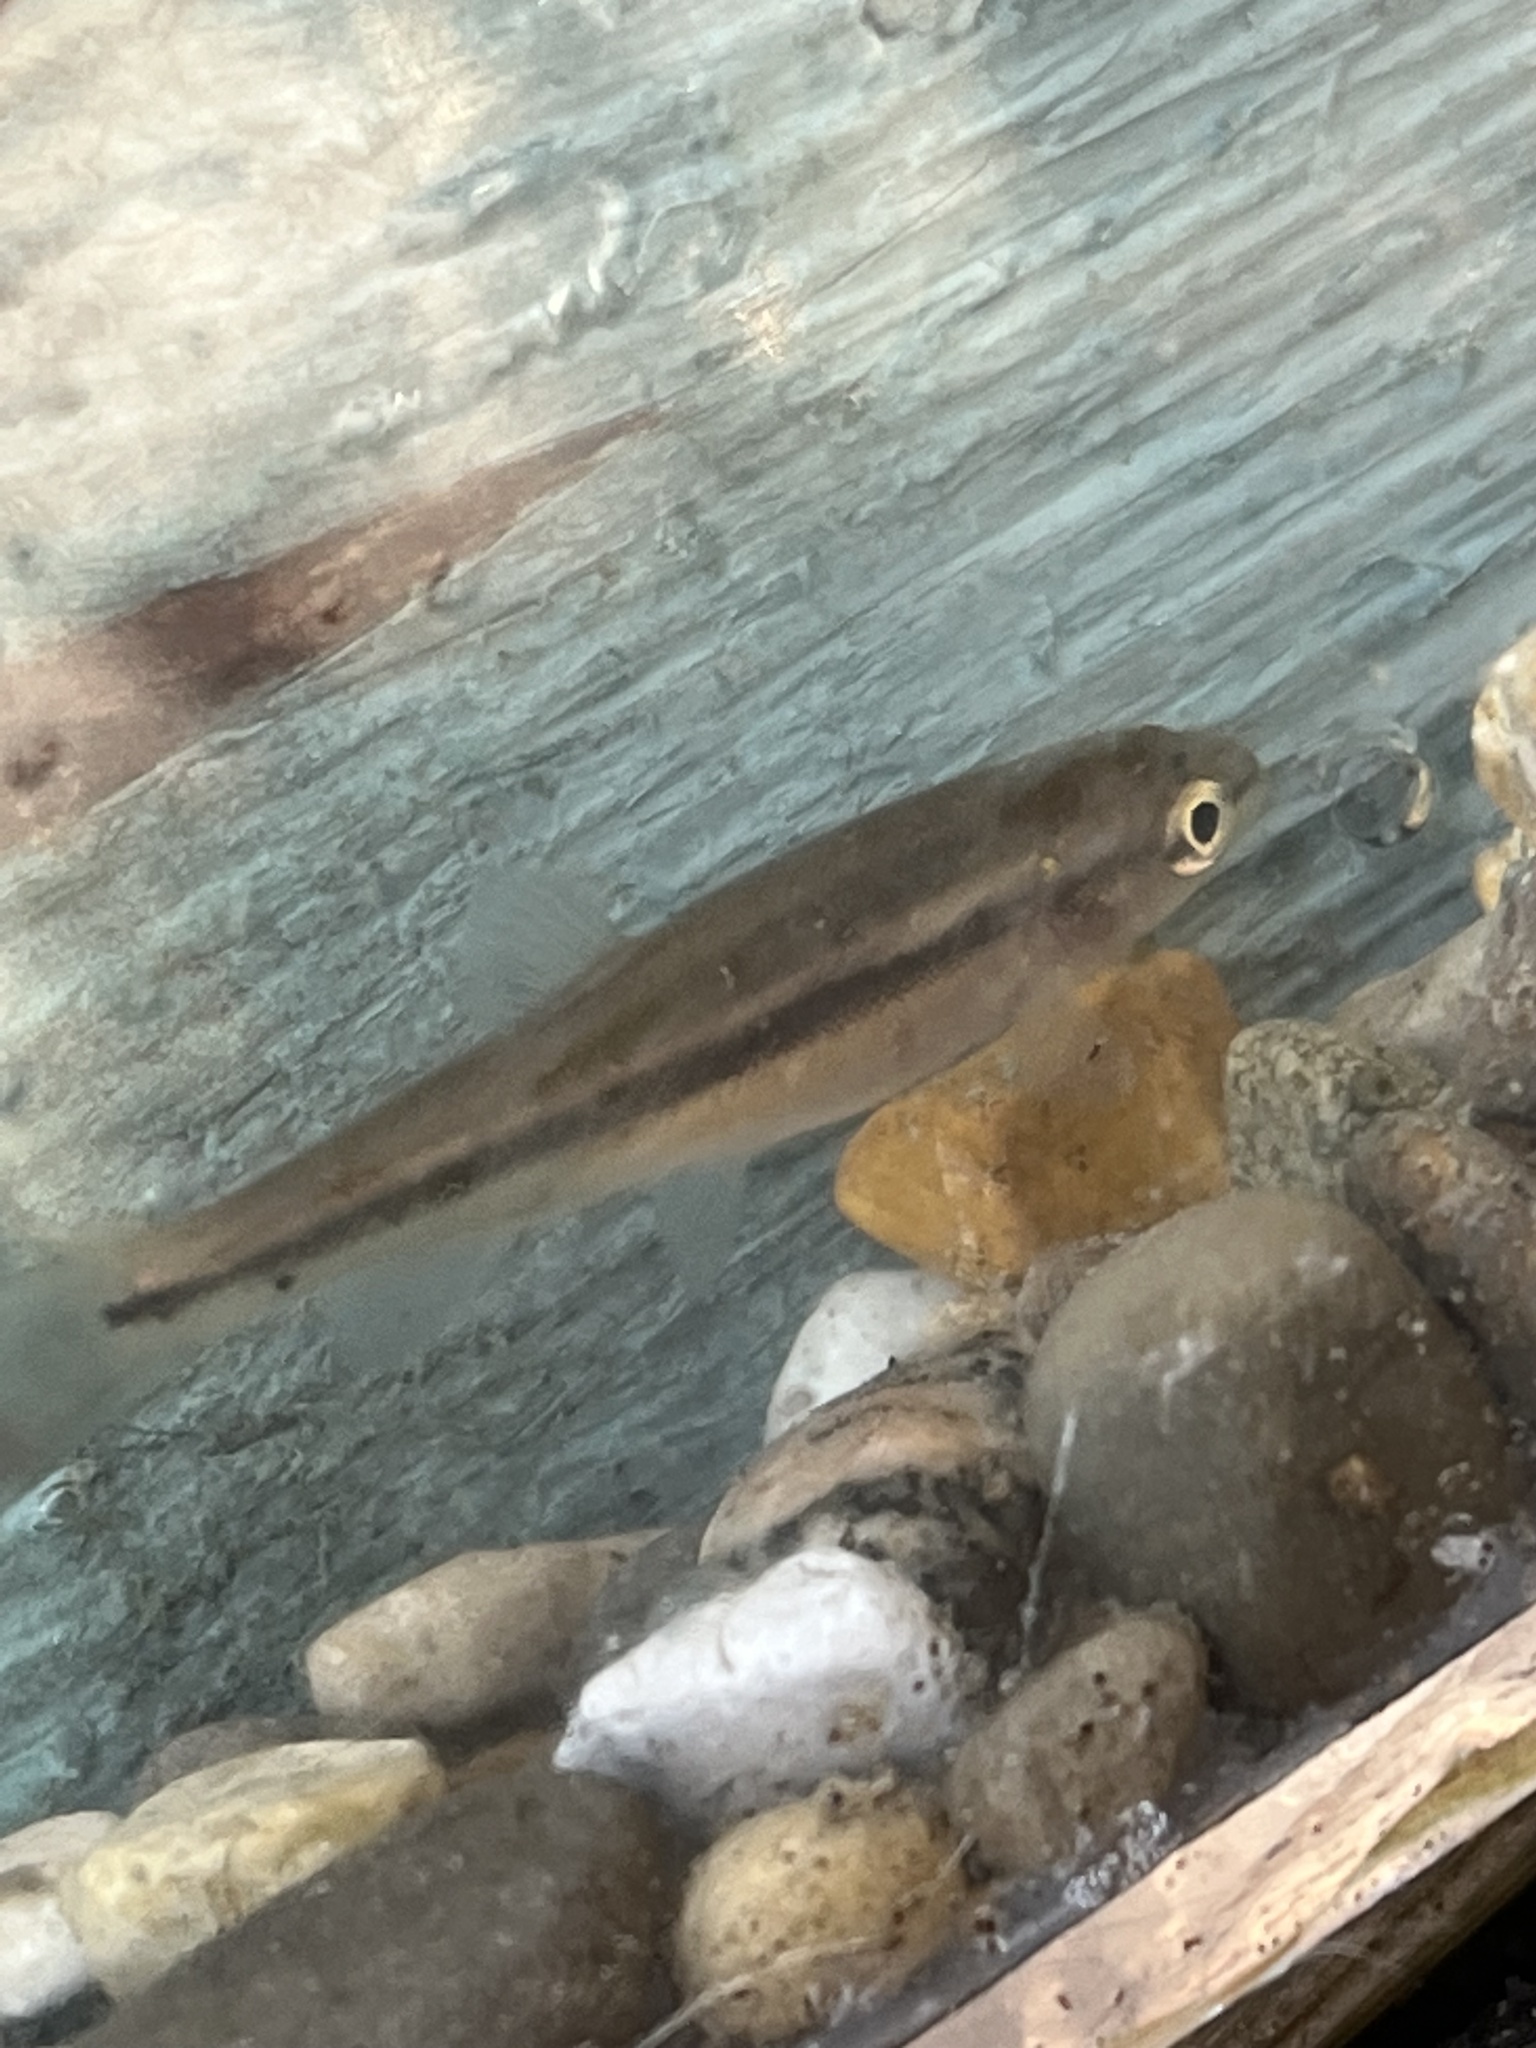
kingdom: Animalia
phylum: Chordata
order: Cypriniformes
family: Cyprinidae
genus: Semotilus
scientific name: Semotilus atromaculatus
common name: Creek chub
